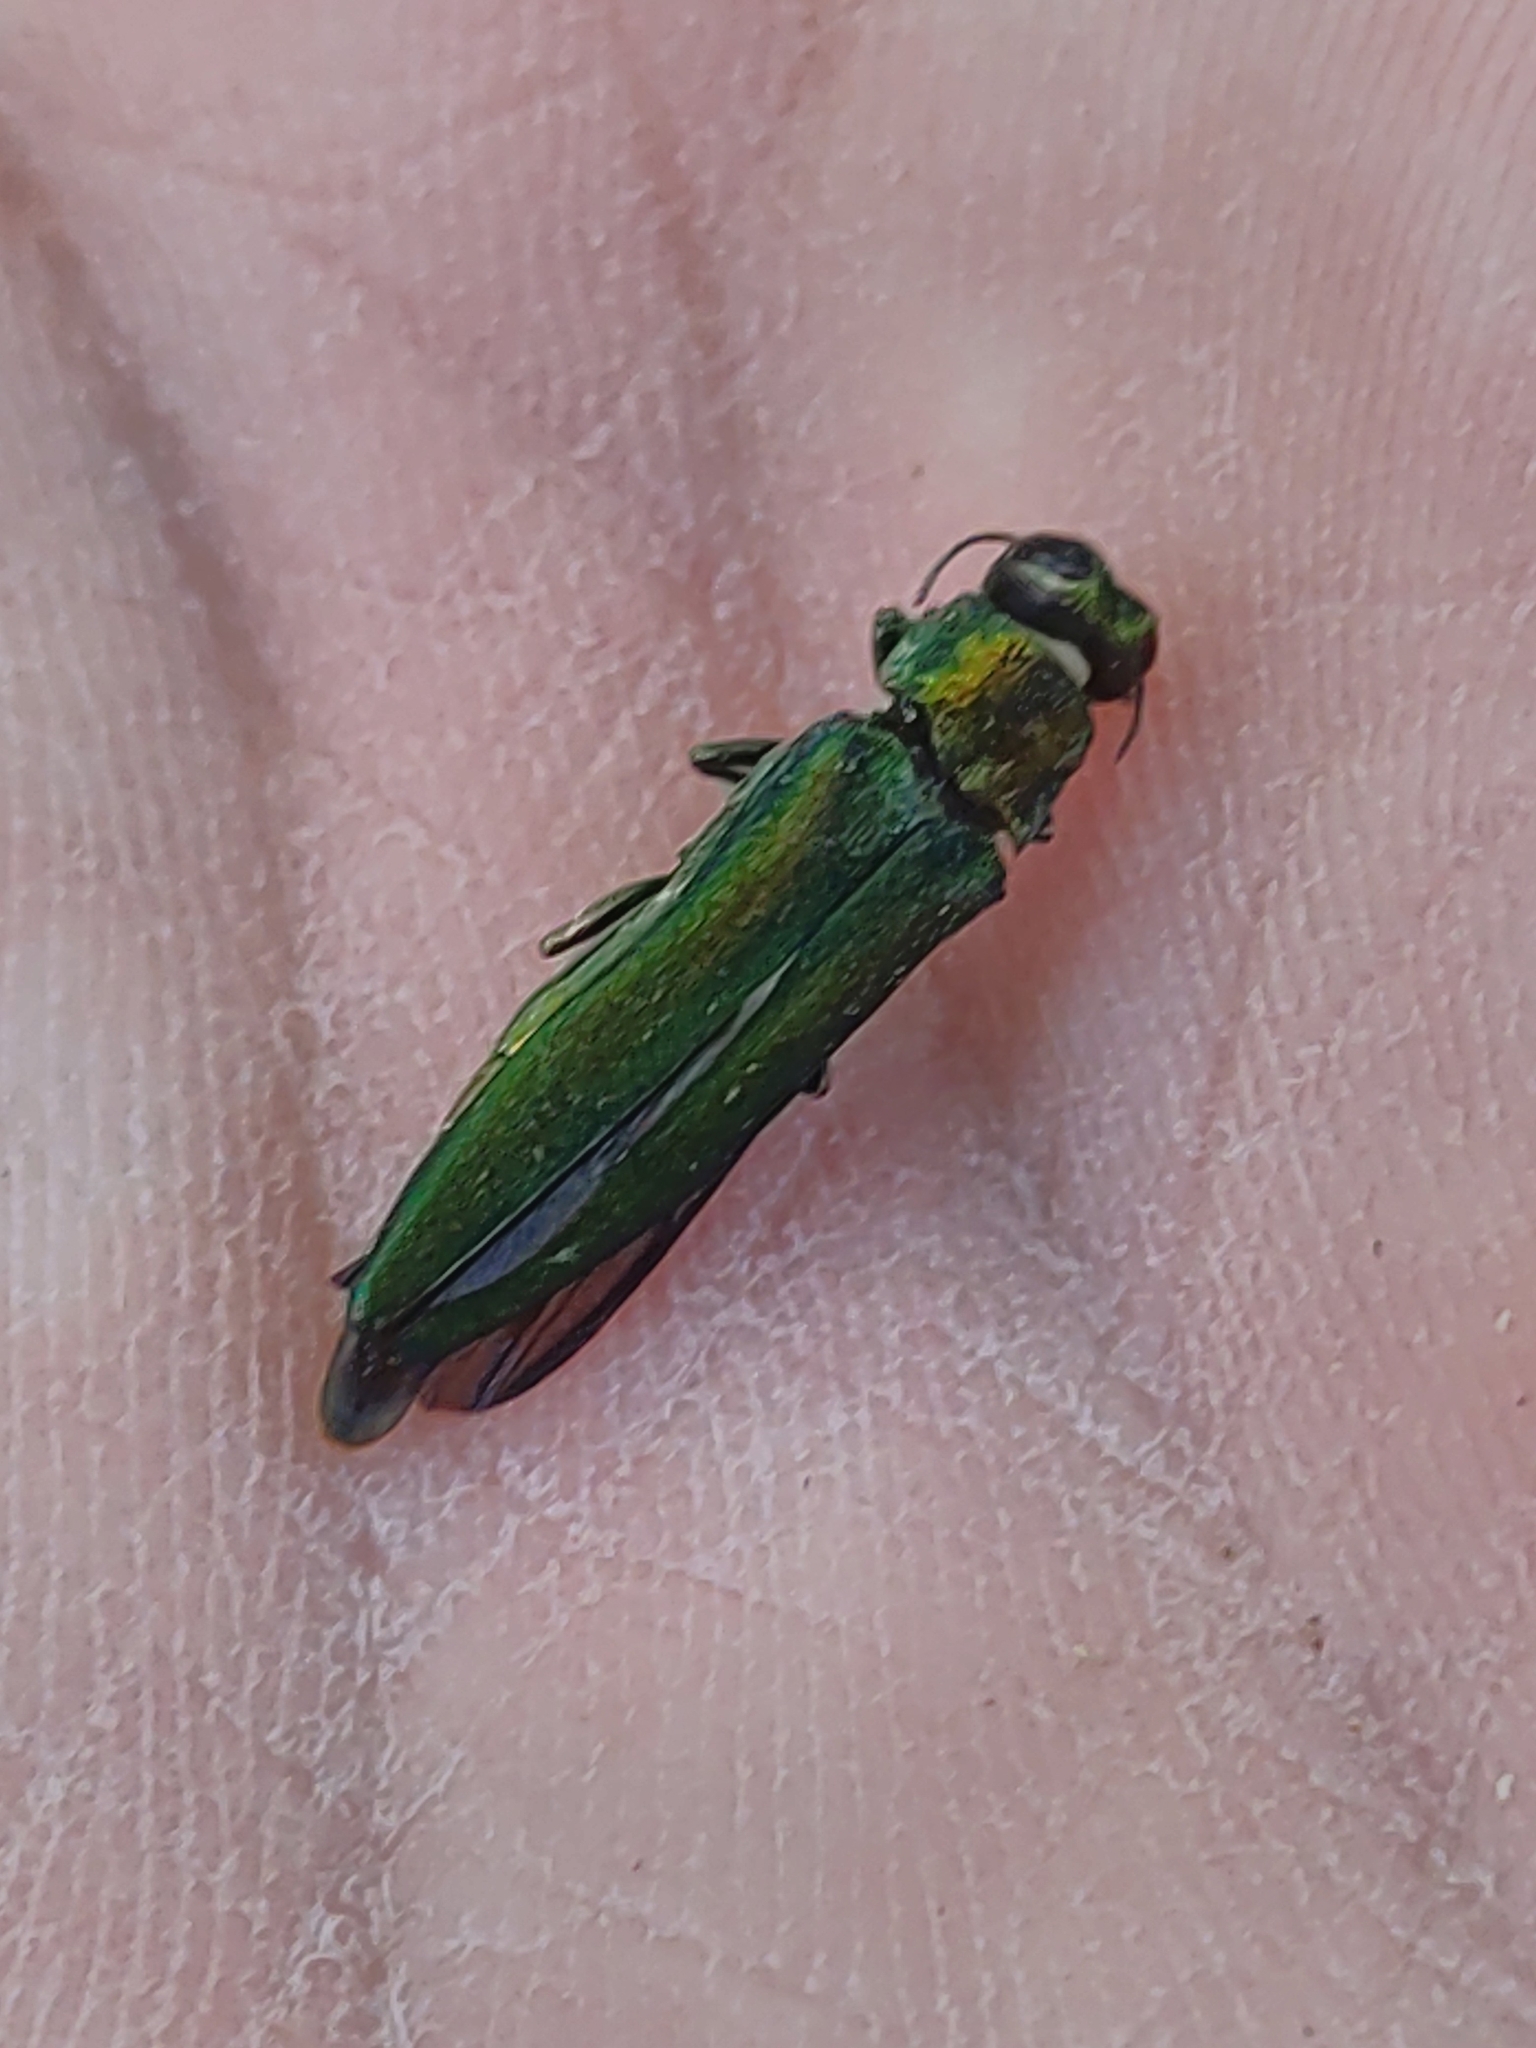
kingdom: Animalia
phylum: Arthropoda
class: Insecta
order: Coleoptera
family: Buprestidae
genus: Agrilus
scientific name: Agrilus planipennis
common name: Emerald ash borer
